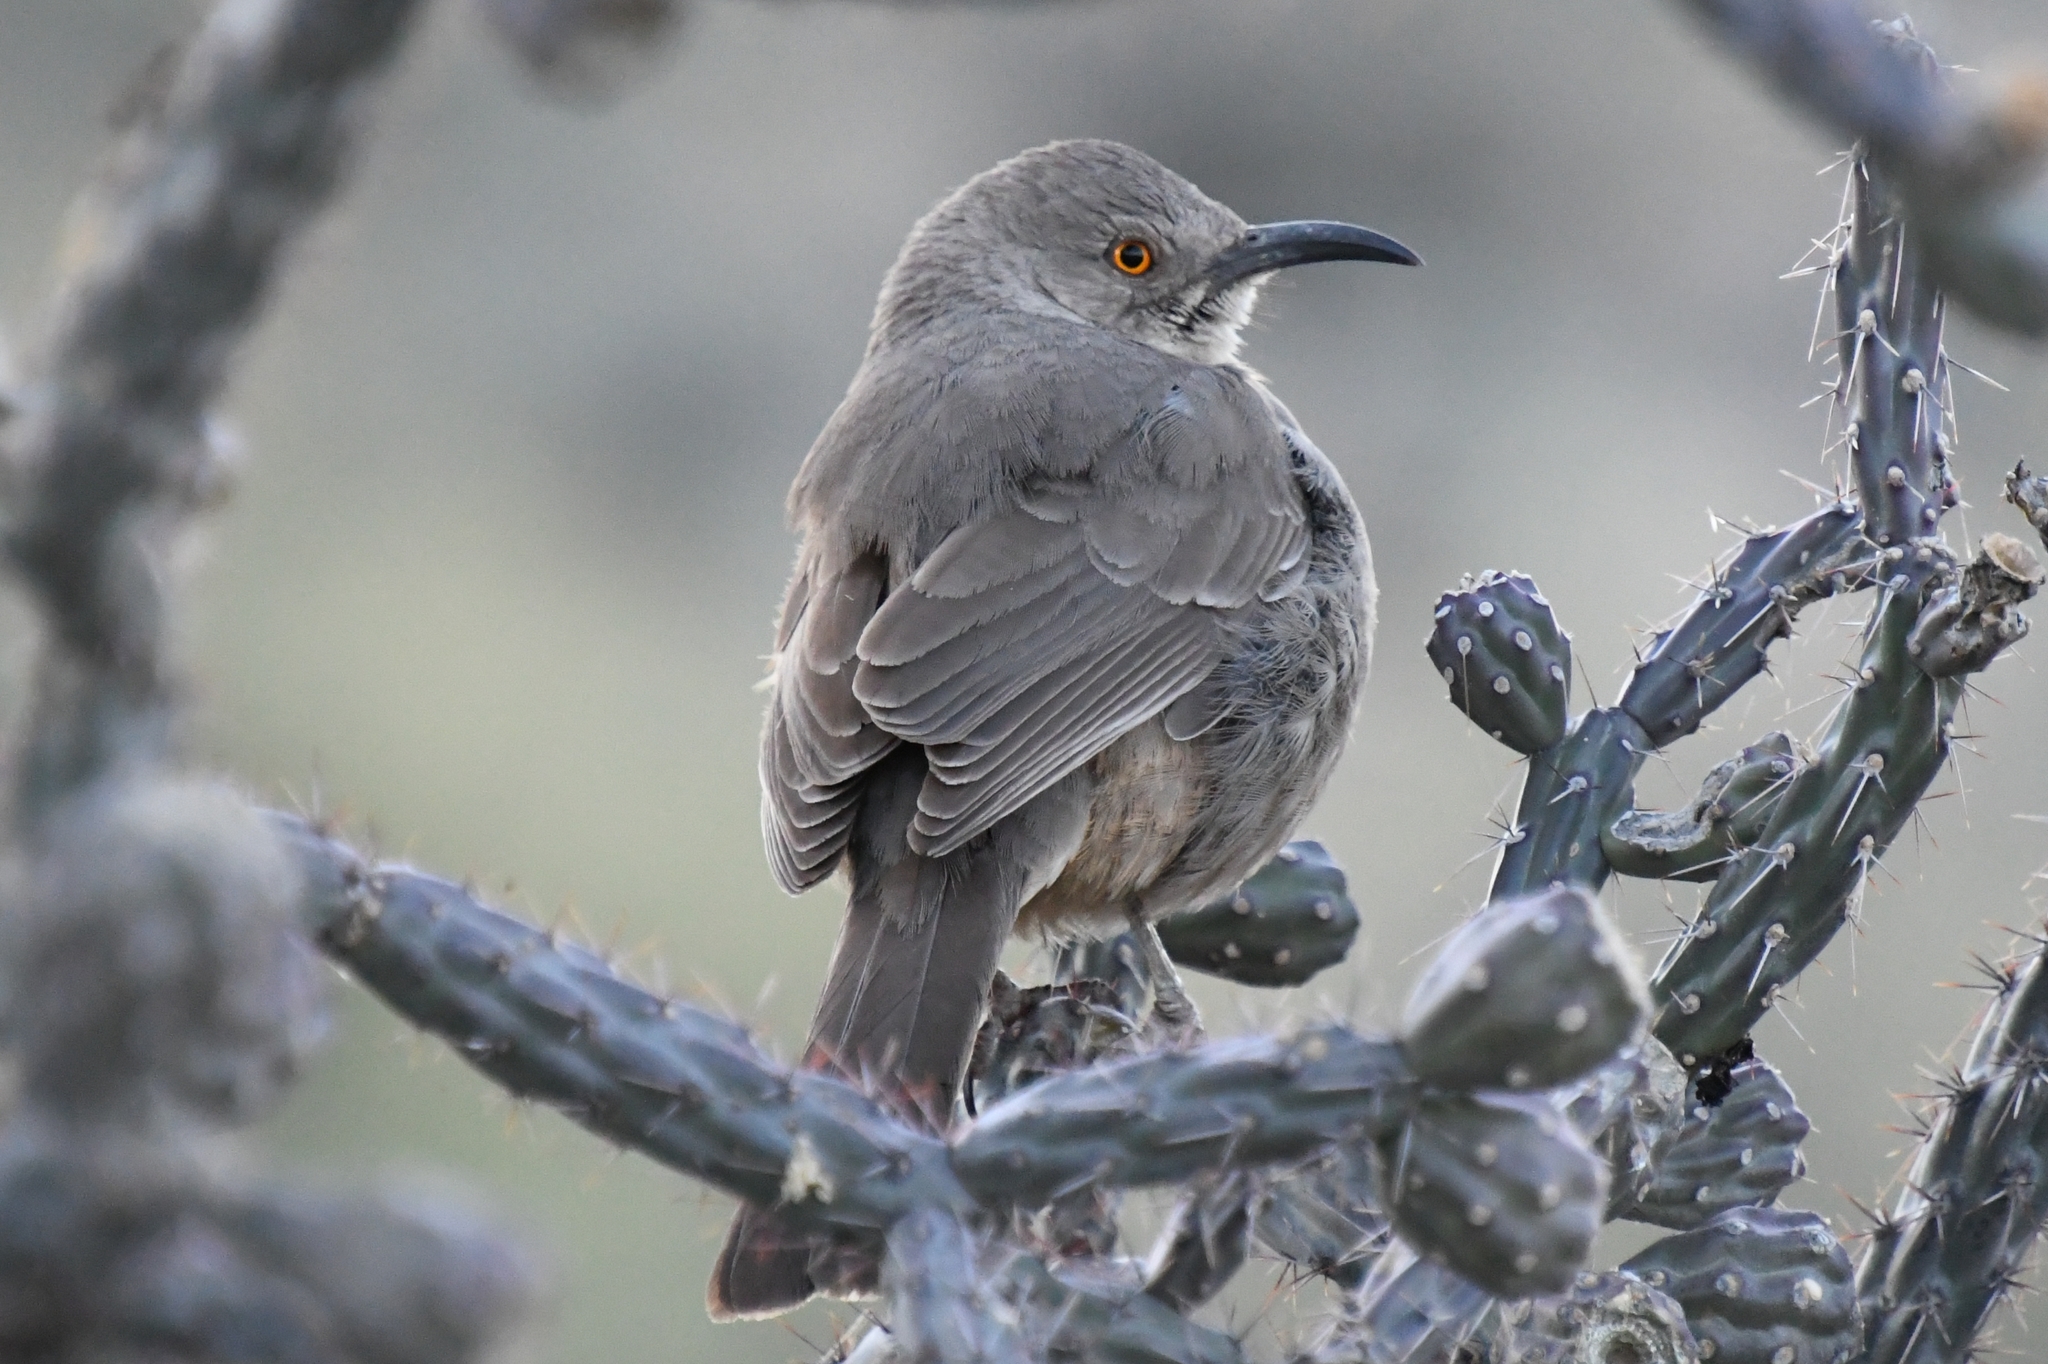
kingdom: Animalia
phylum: Chordata
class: Aves
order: Passeriformes
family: Mimidae
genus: Toxostoma
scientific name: Toxostoma curvirostre
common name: Curve-billed thrasher
